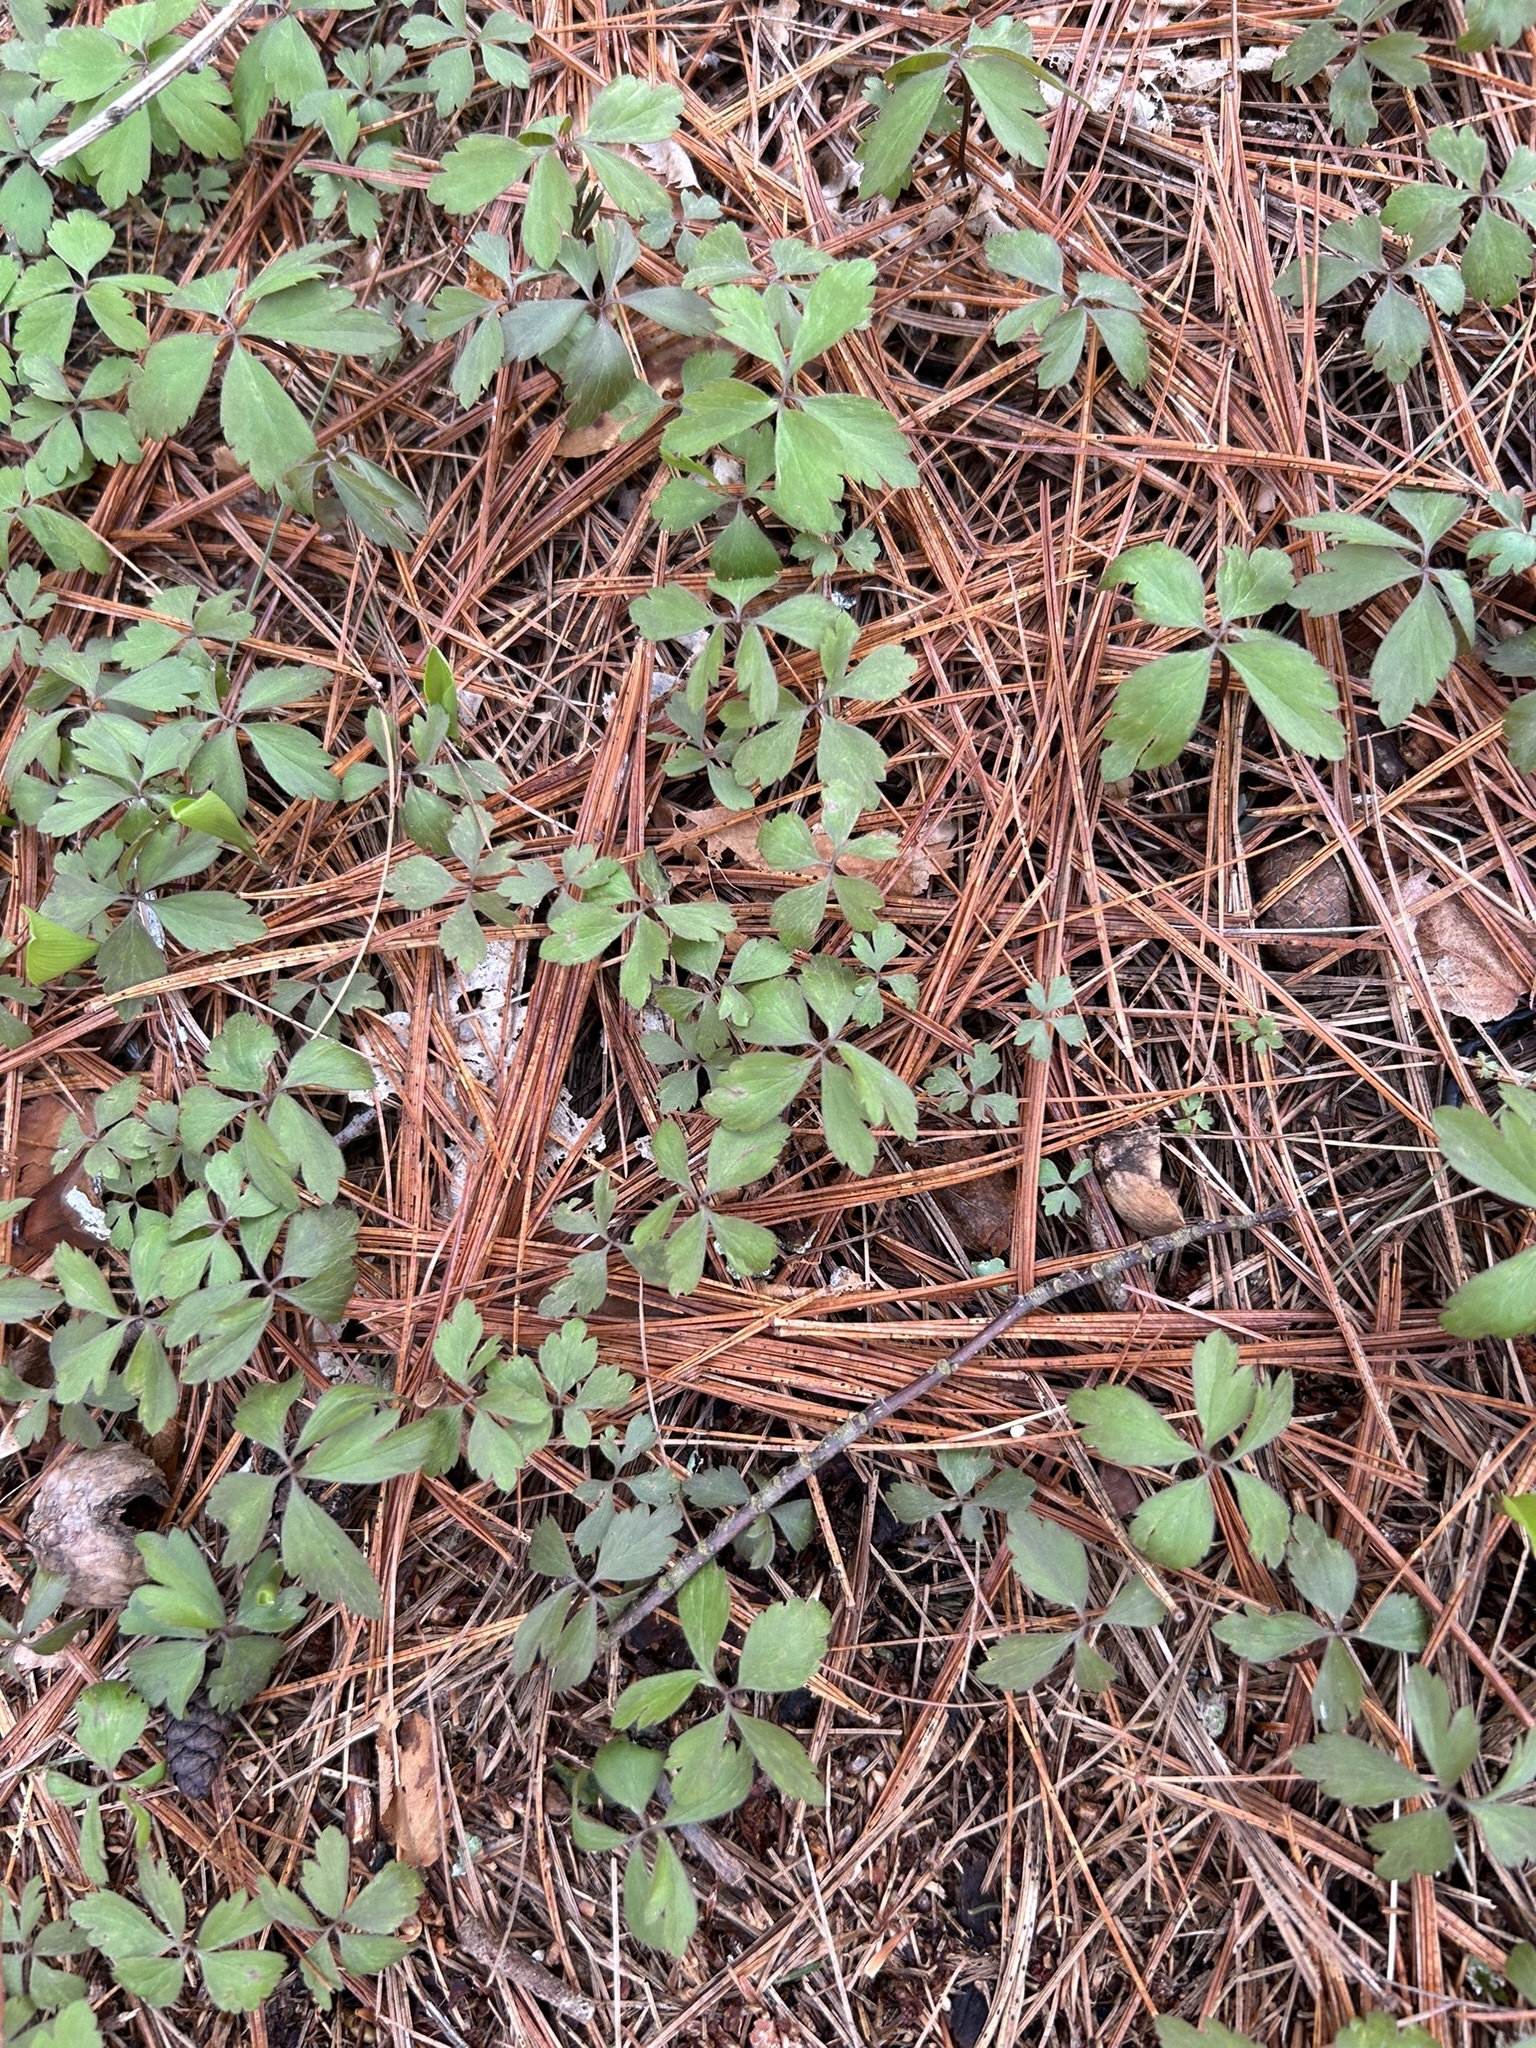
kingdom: Plantae
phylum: Tracheophyta
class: Magnoliopsida
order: Ranunculales
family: Ranunculaceae
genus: Anemone
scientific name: Anemone quinquefolia
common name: Wood anemone
